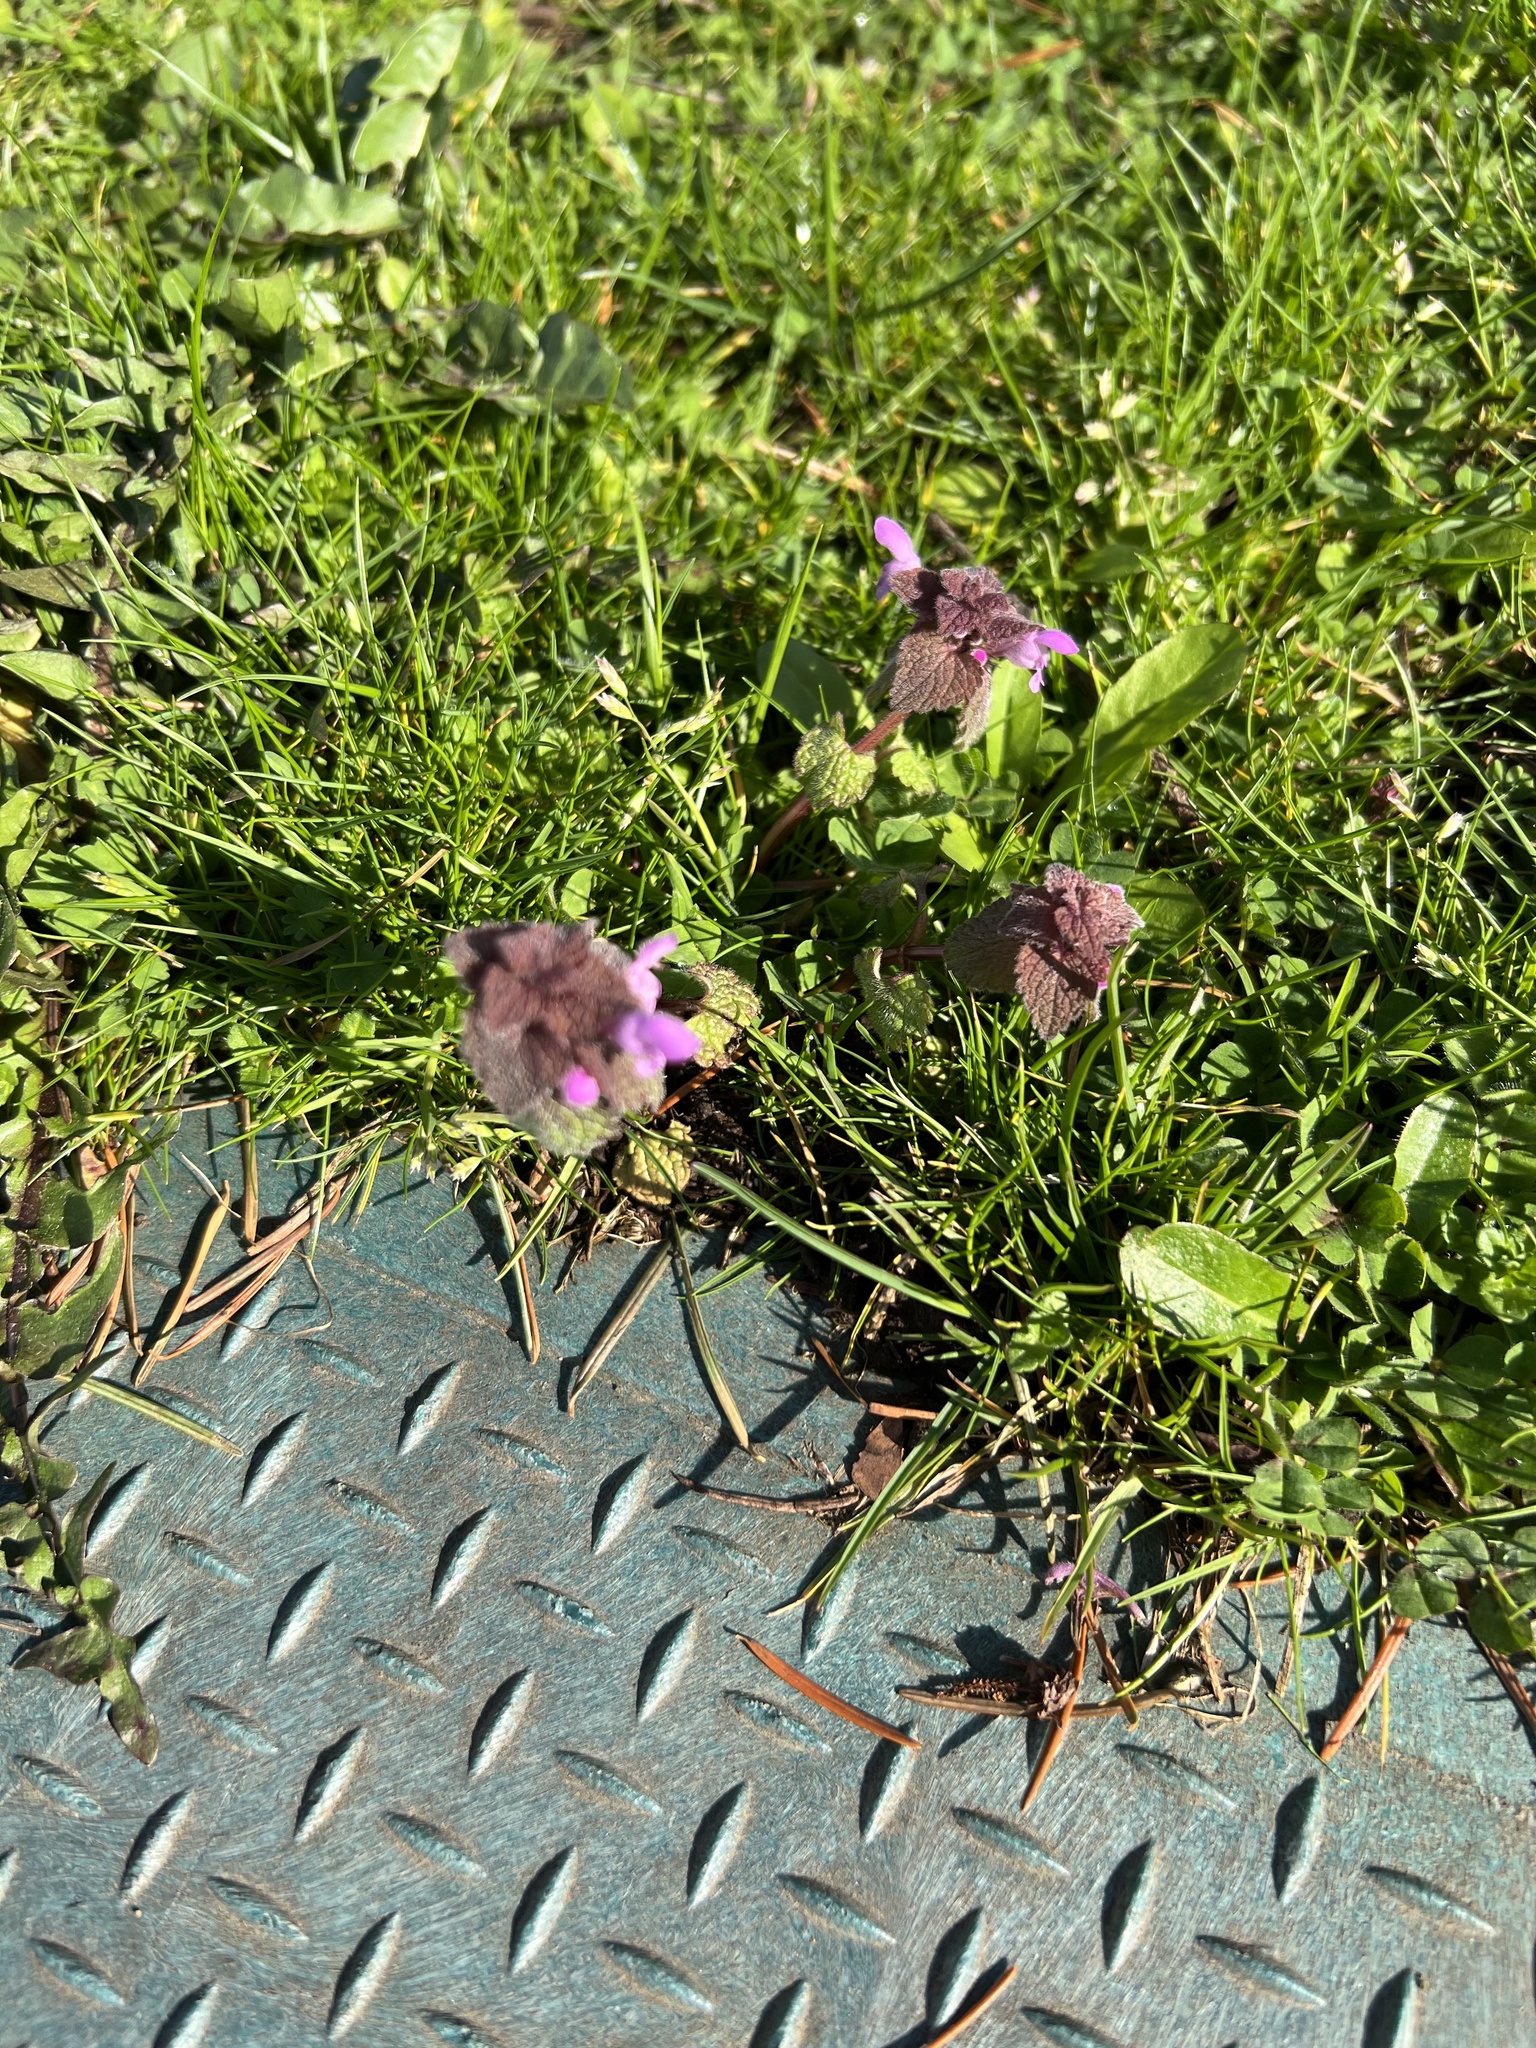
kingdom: Plantae
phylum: Tracheophyta
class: Magnoliopsida
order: Lamiales
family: Lamiaceae
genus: Lamium
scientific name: Lamium purpureum
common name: Red dead-nettle
